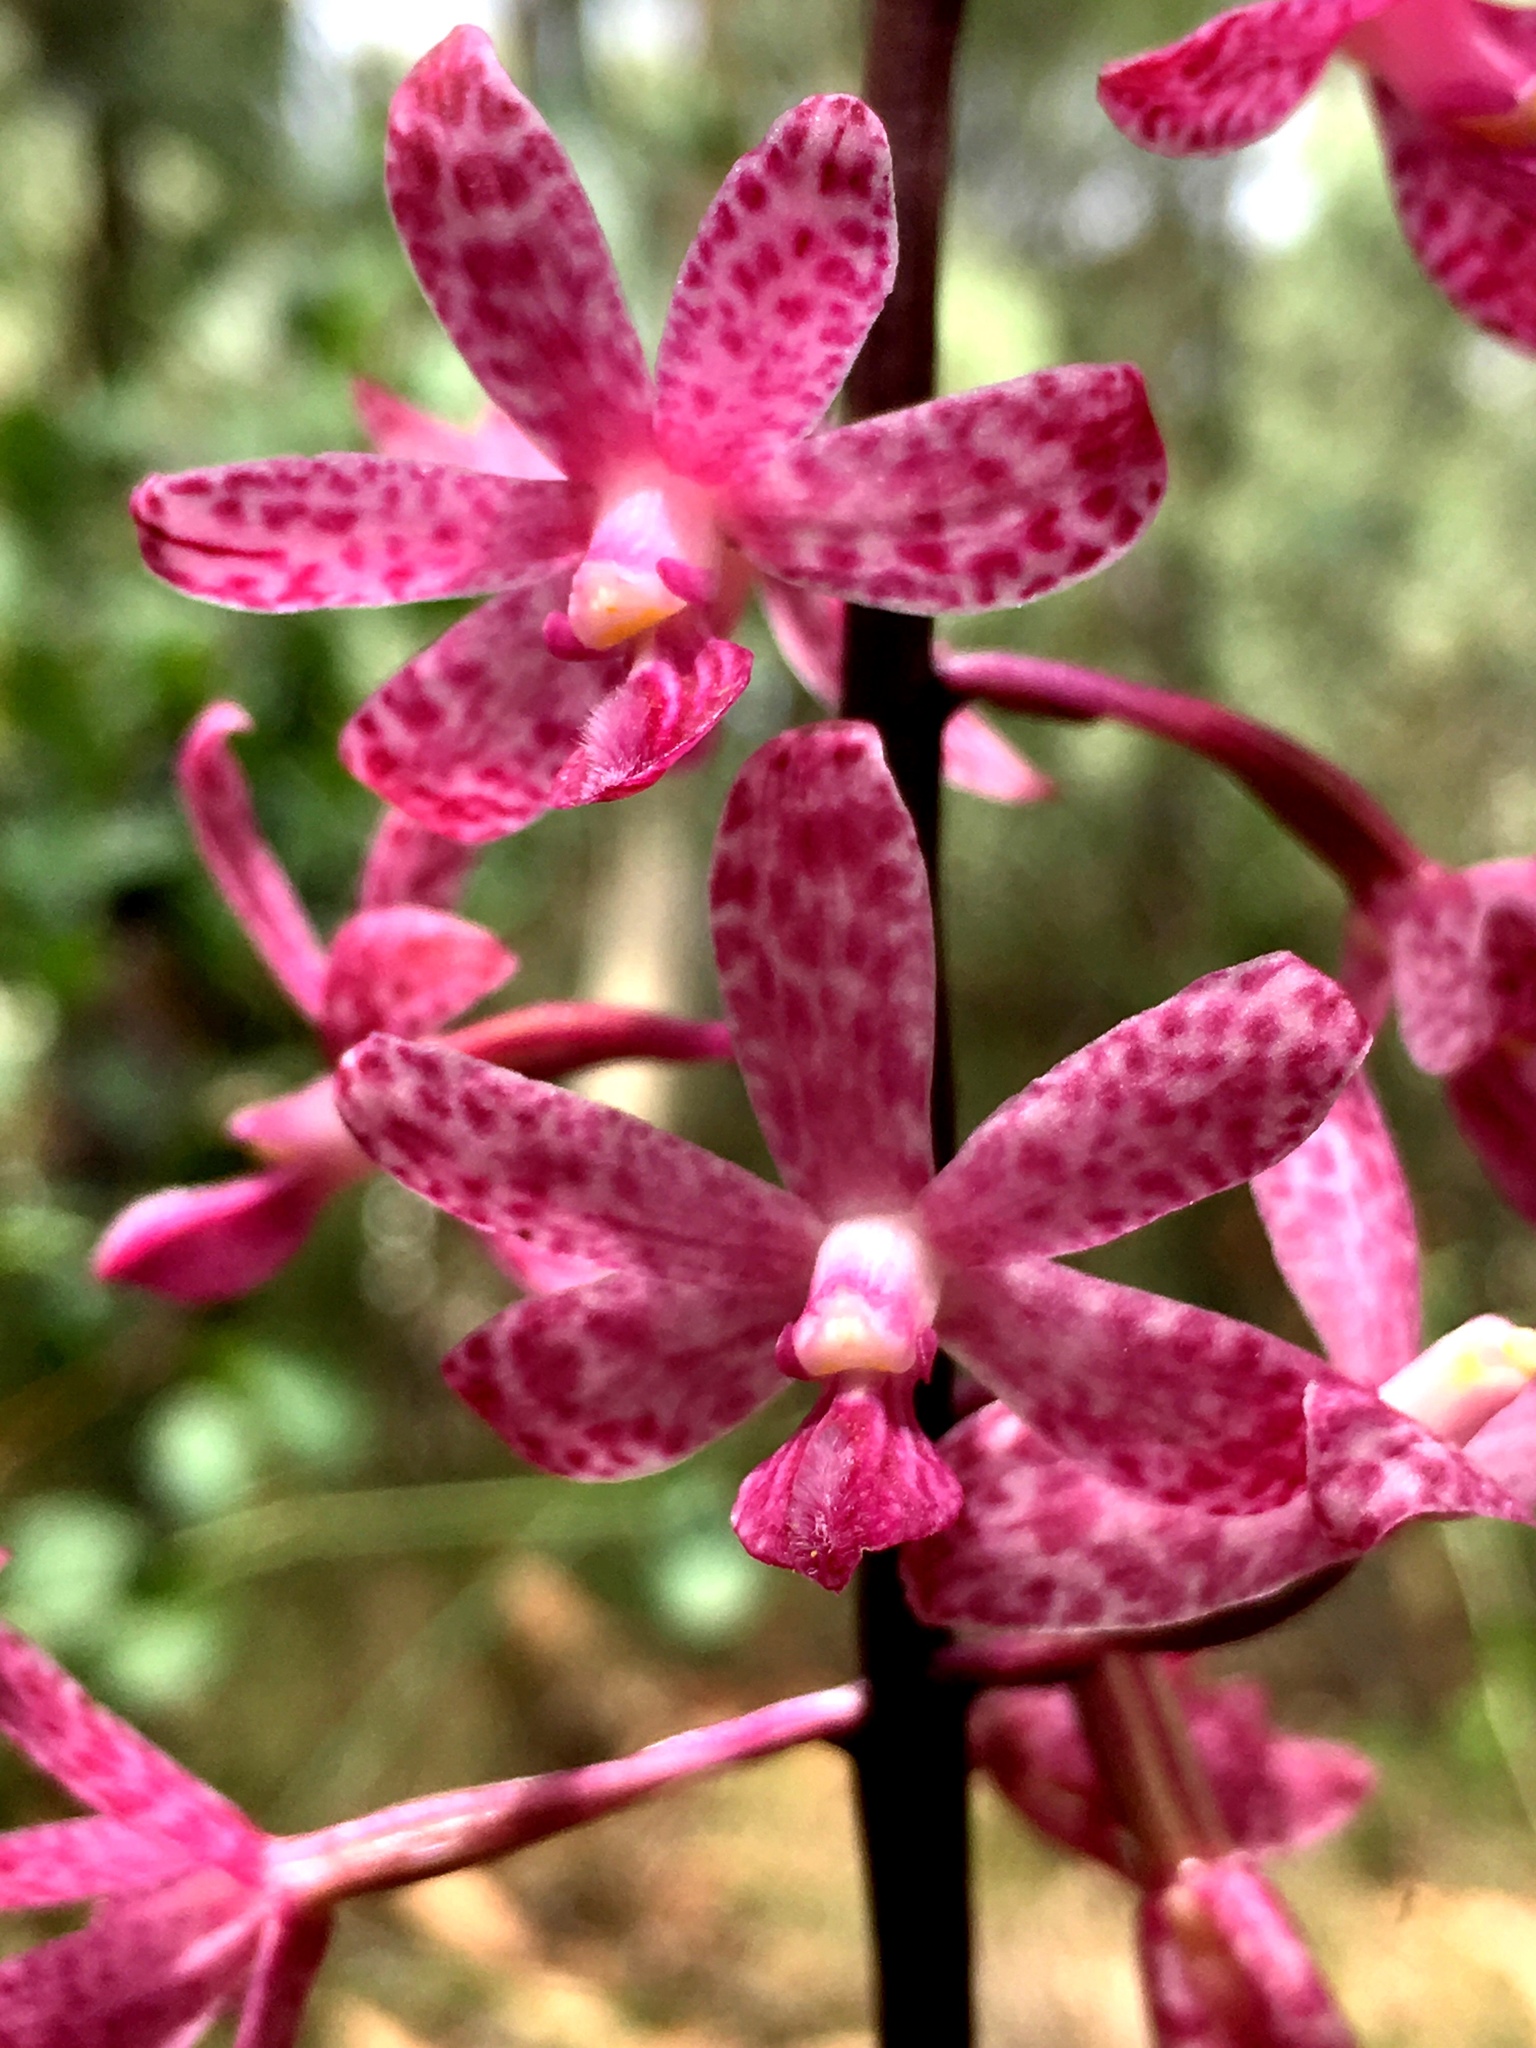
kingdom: Plantae
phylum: Tracheophyta
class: Liliopsida
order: Asparagales
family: Orchidaceae
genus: Dipodium
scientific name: Dipodium squamatum
